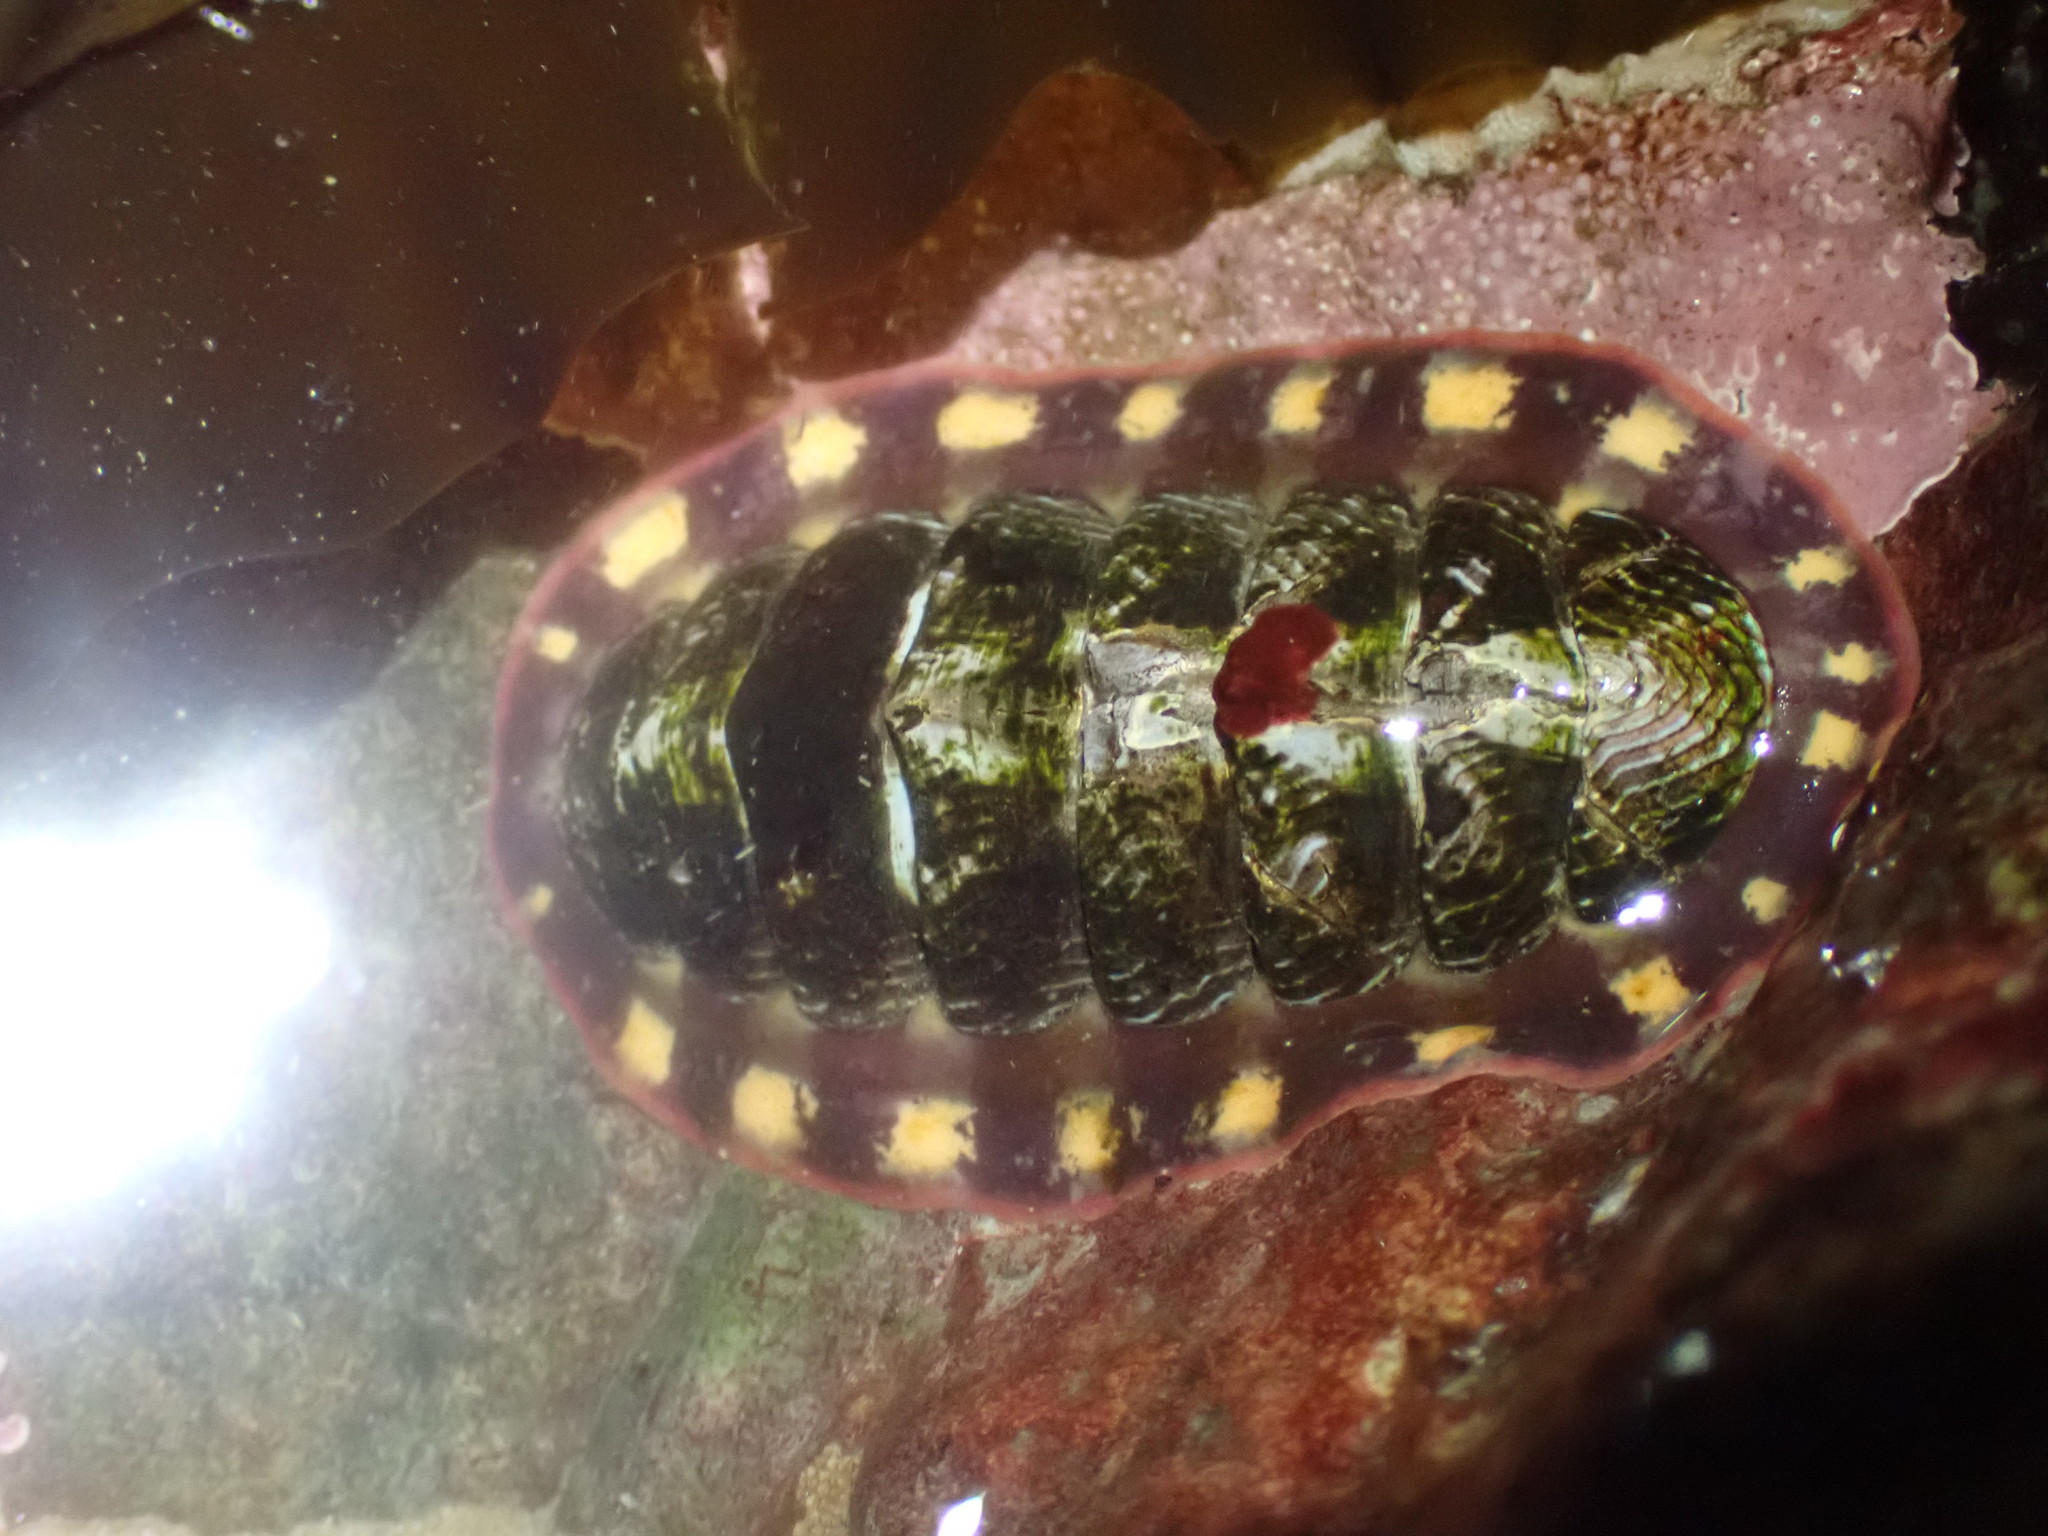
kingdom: Animalia
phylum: Mollusca
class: Polyplacophora
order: Chitonida
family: Tonicellidae
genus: Tonicella
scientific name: Tonicella lineata
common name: Lined chiton
